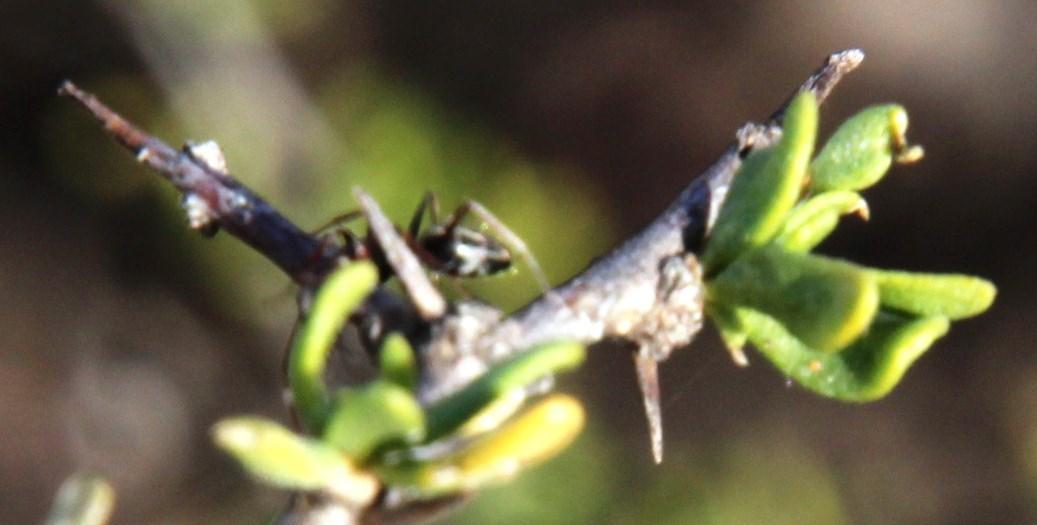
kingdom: Animalia
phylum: Arthropoda
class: Insecta
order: Hymenoptera
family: Formicidae
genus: Camponotus
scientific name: Camponotus vestitus
